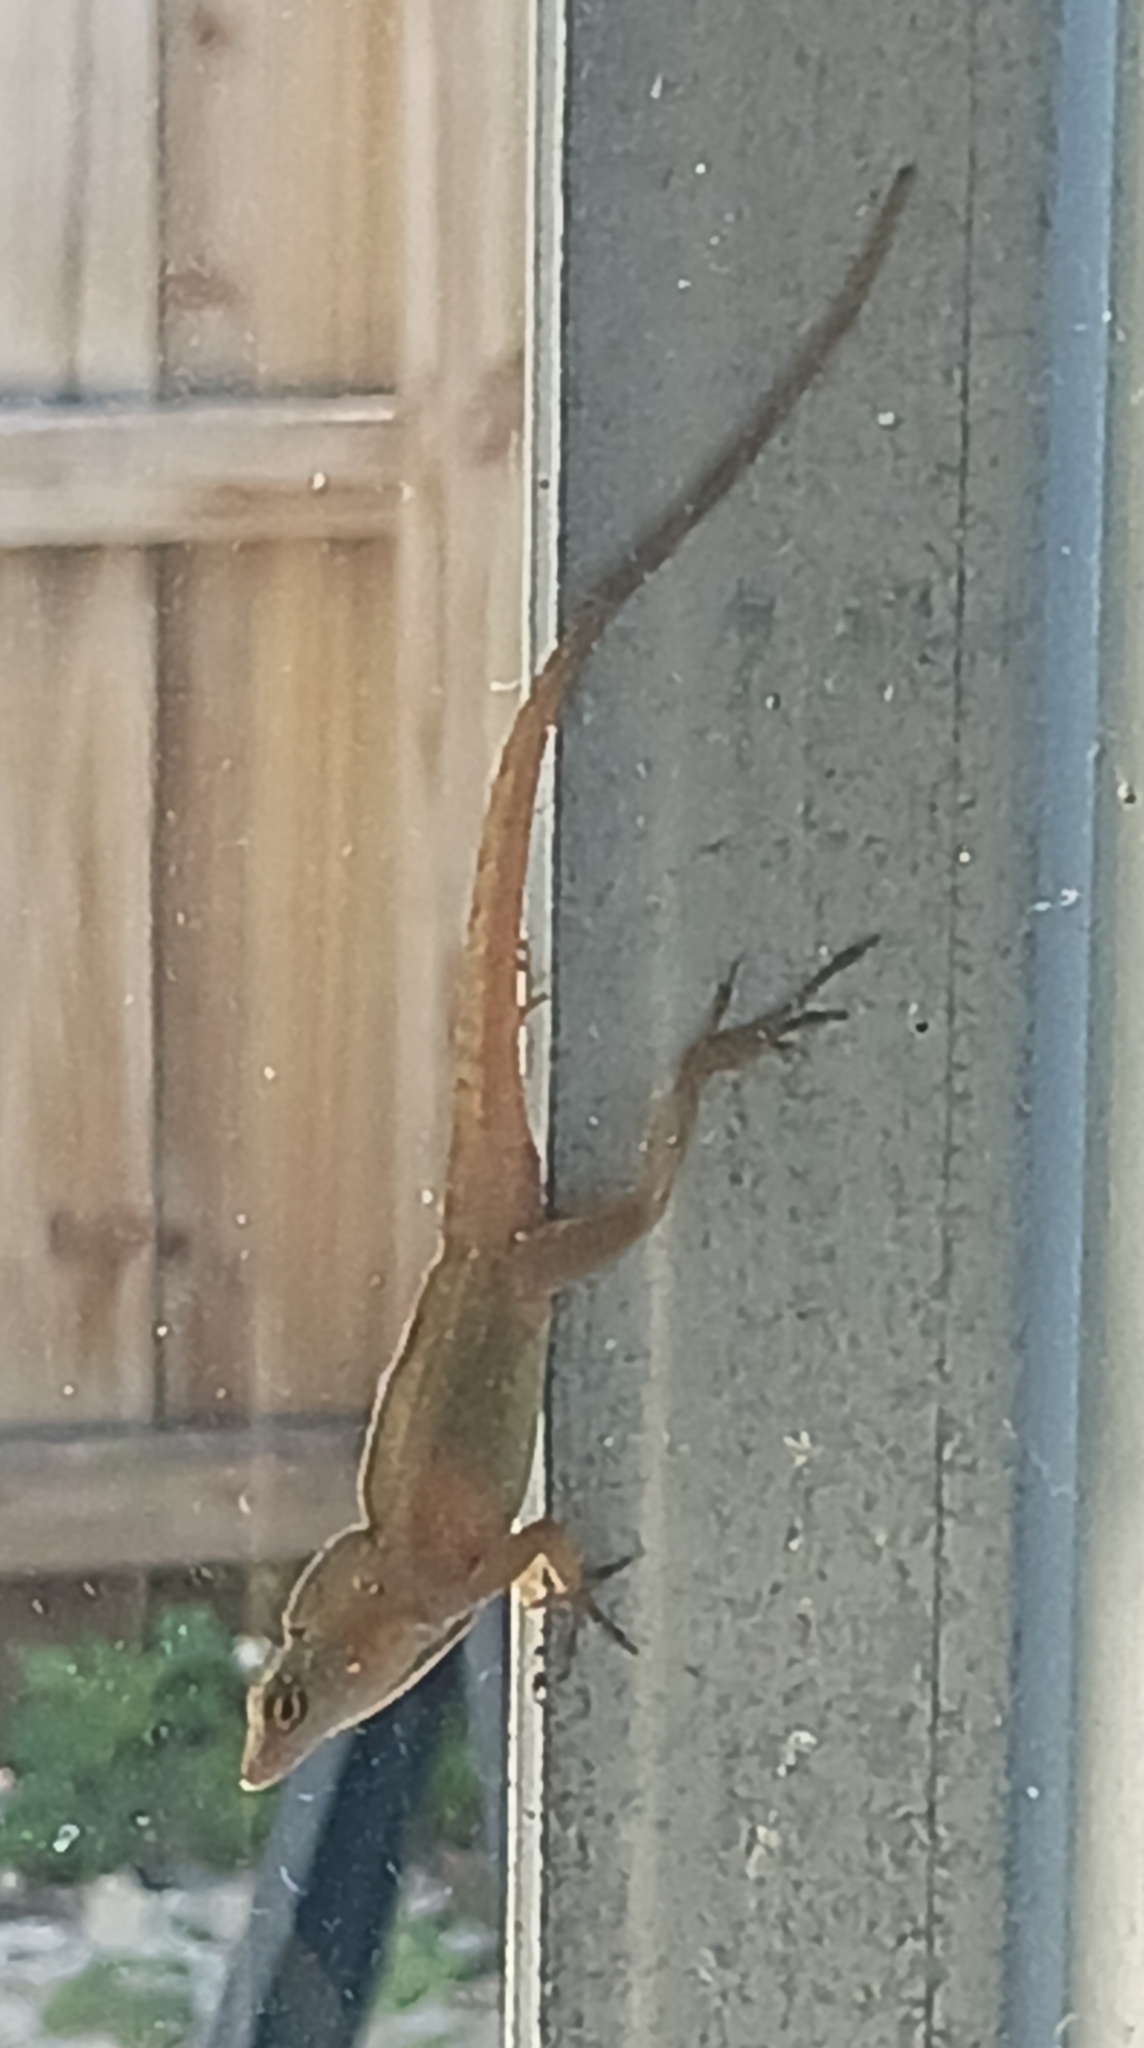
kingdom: Animalia
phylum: Chordata
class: Squamata
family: Dactyloidae
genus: Anolis
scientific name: Anolis sagrei
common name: Brown anole
